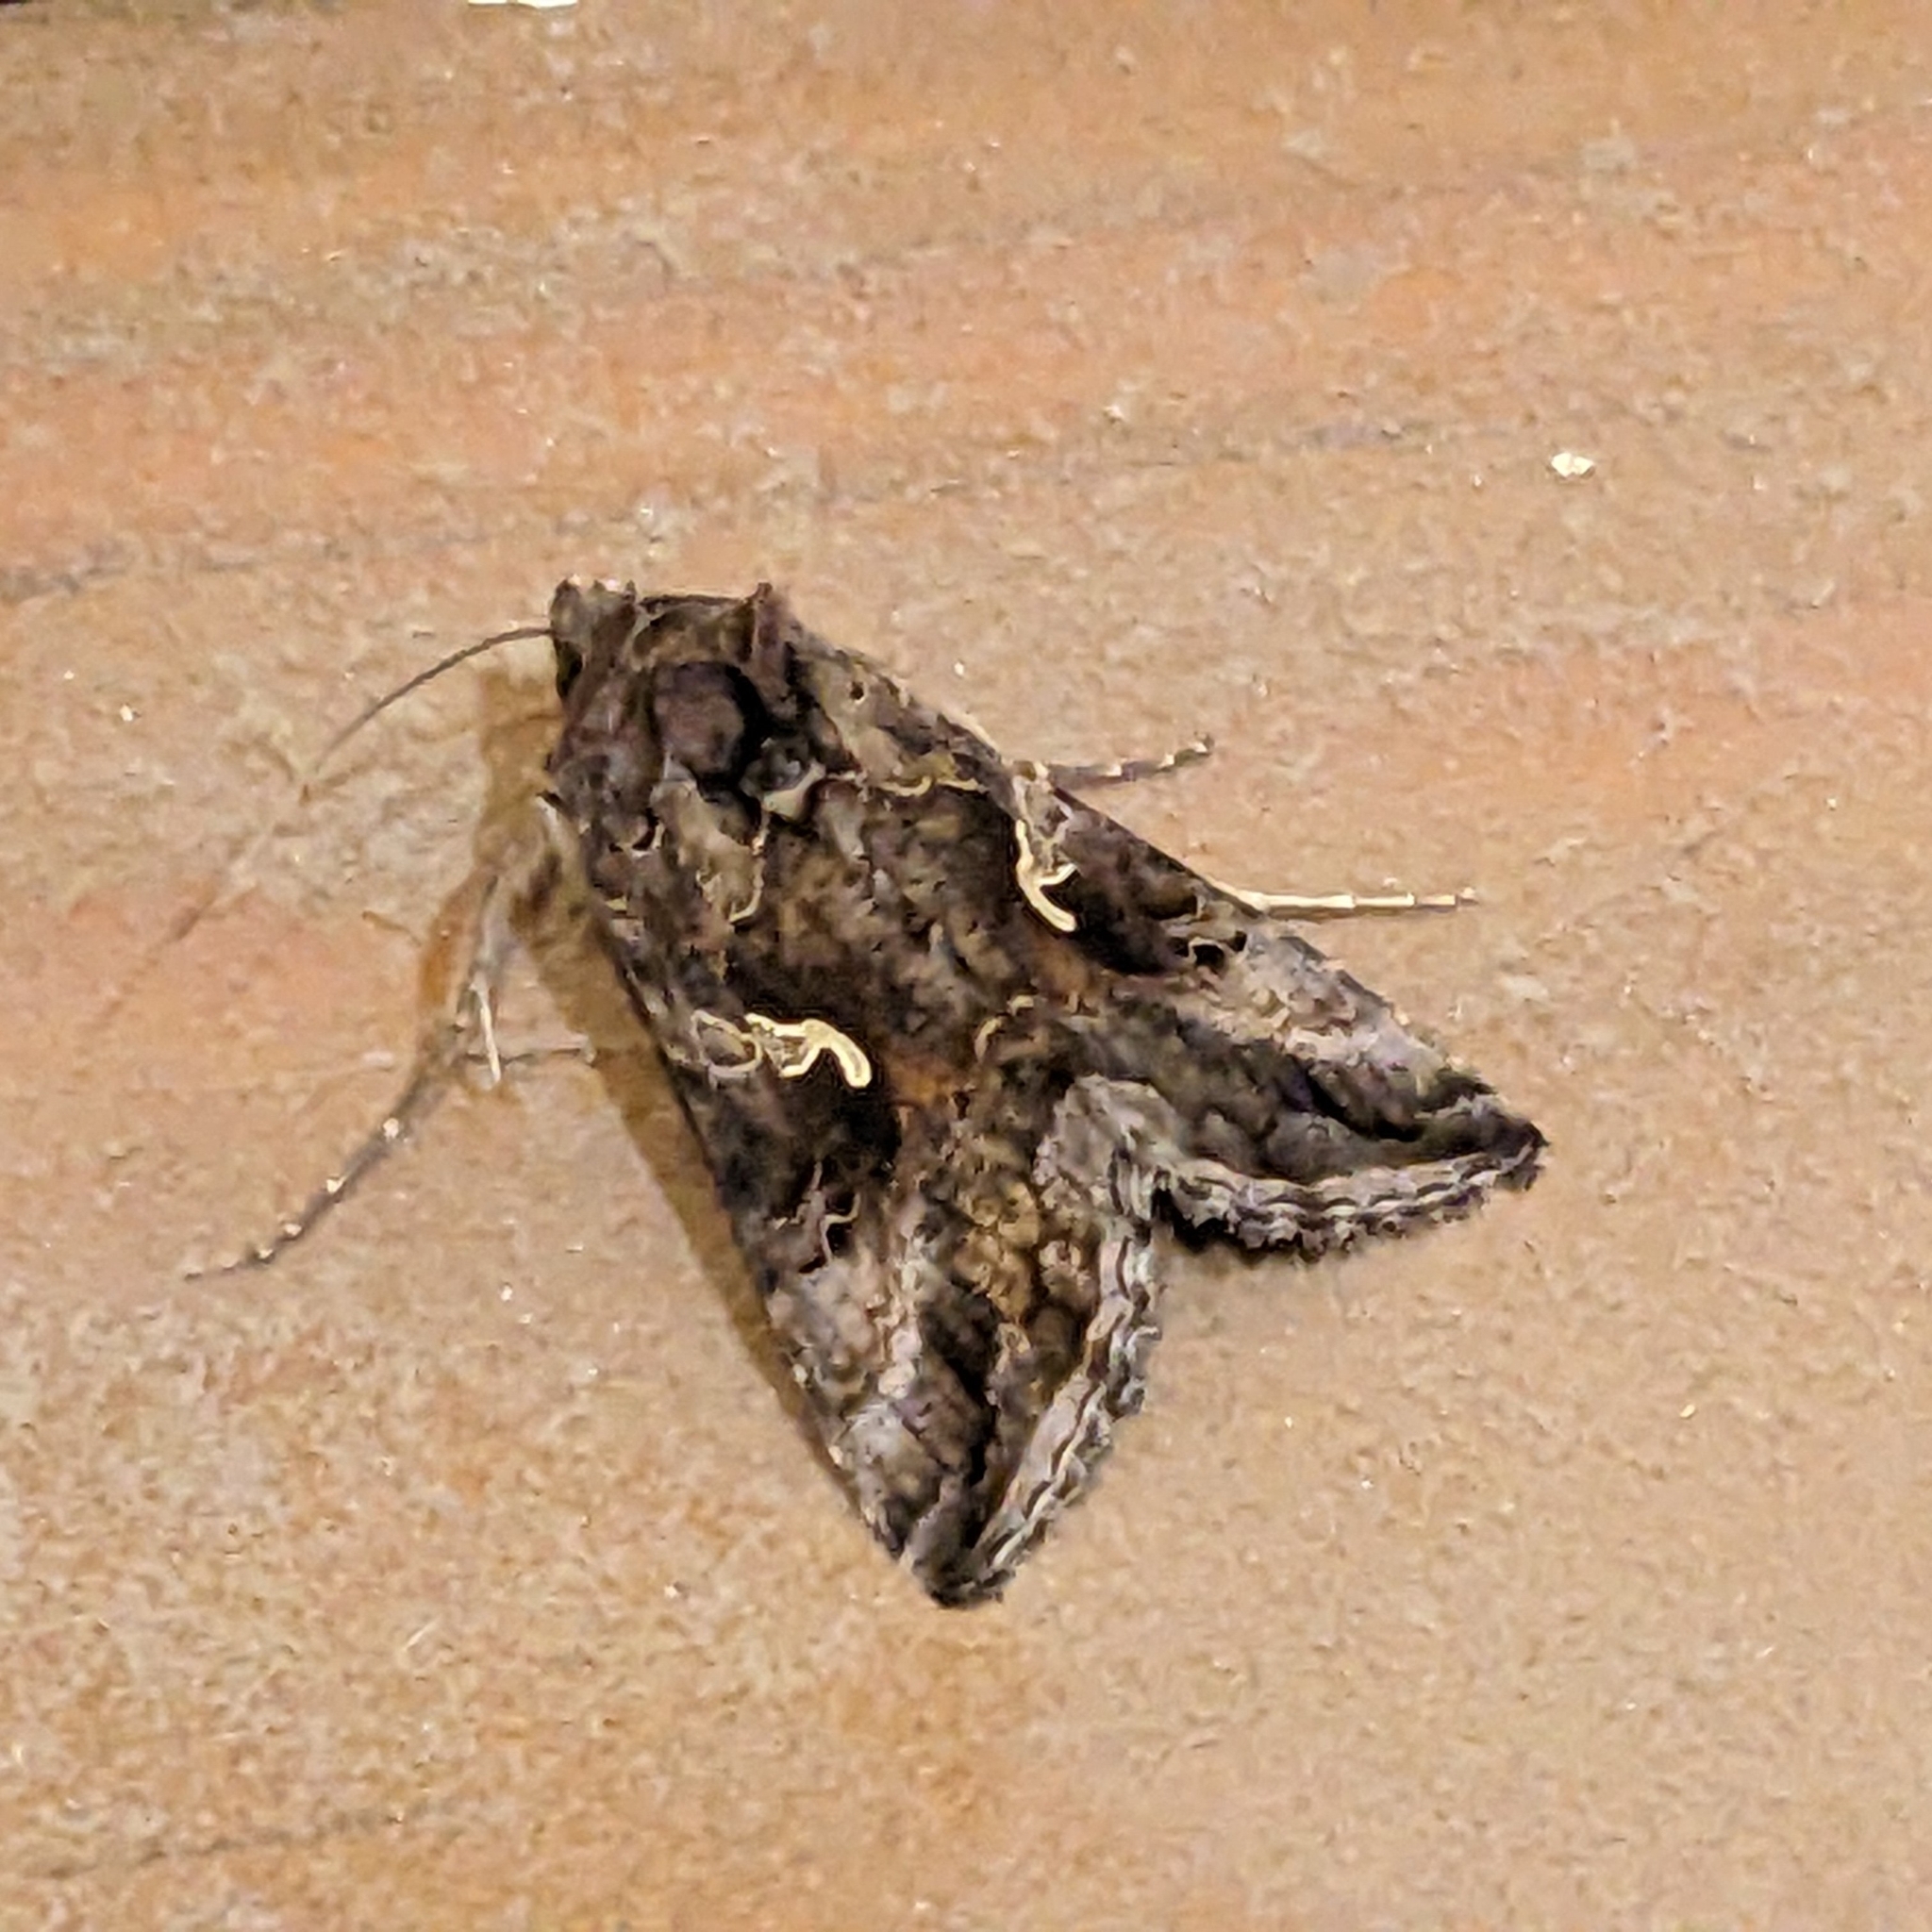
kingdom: Animalia
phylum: Arthropoda
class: Insecta
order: Lepidoptera
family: Noctuidae
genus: Autographa
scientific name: Autographa gamma
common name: Silver y
